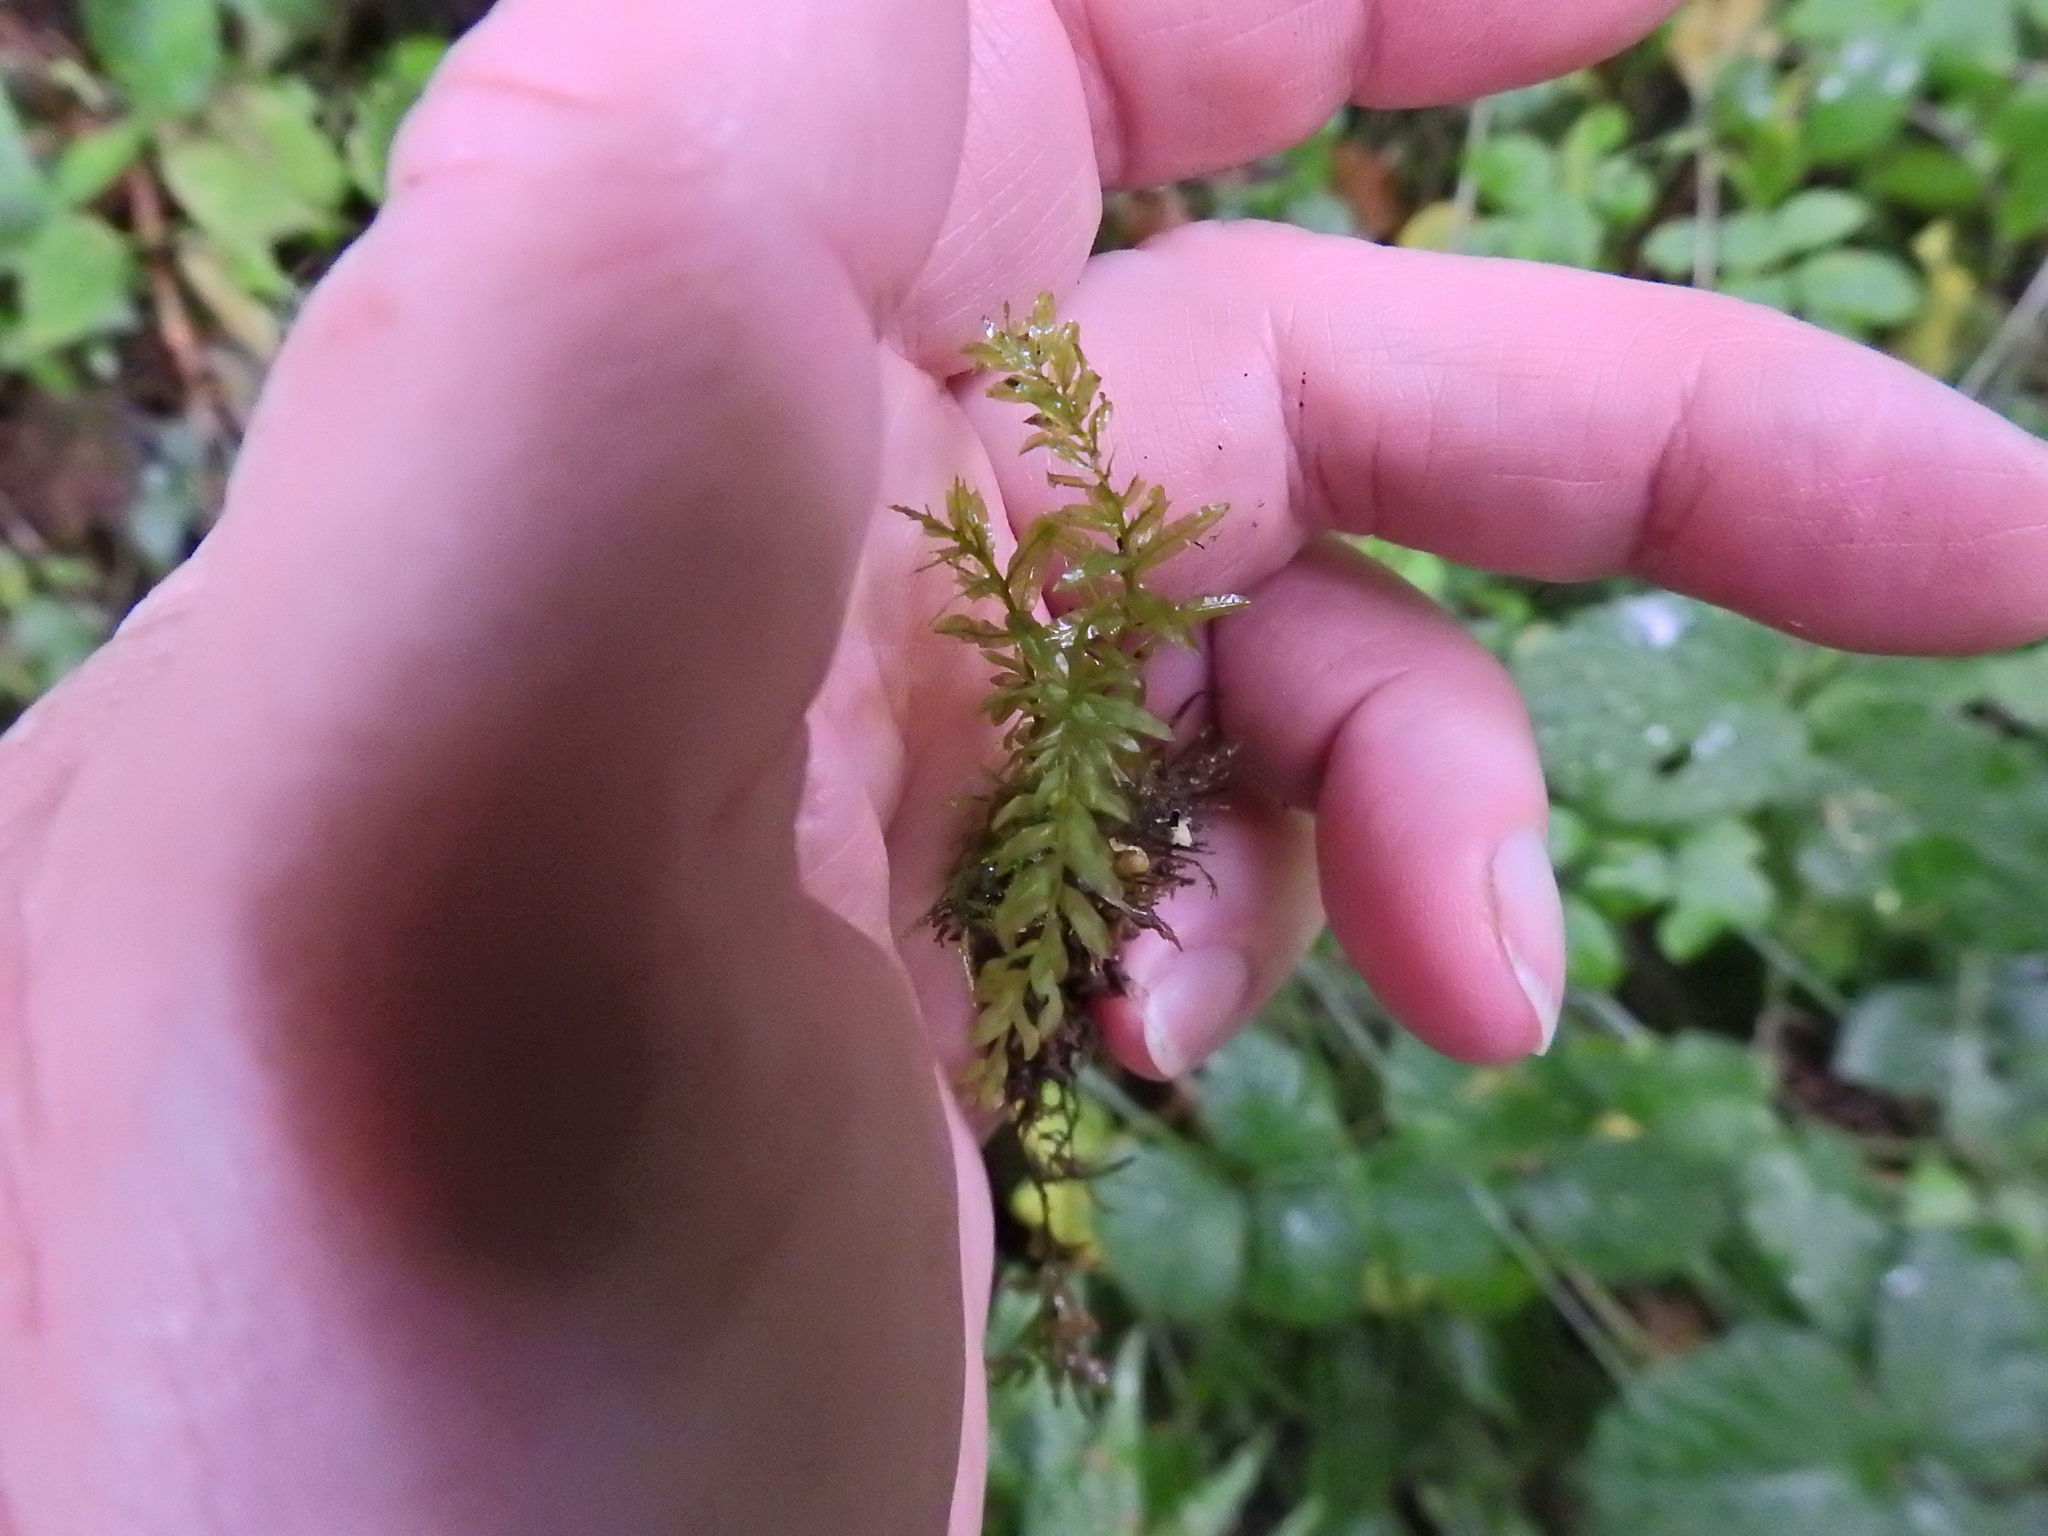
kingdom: Plantae
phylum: Bryophyta
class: Bryopsida
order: Bryales
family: Mniaceae
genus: Plagiomnium
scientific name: Plagiomnium undulatum
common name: Hart's-tongue thyme-moss
